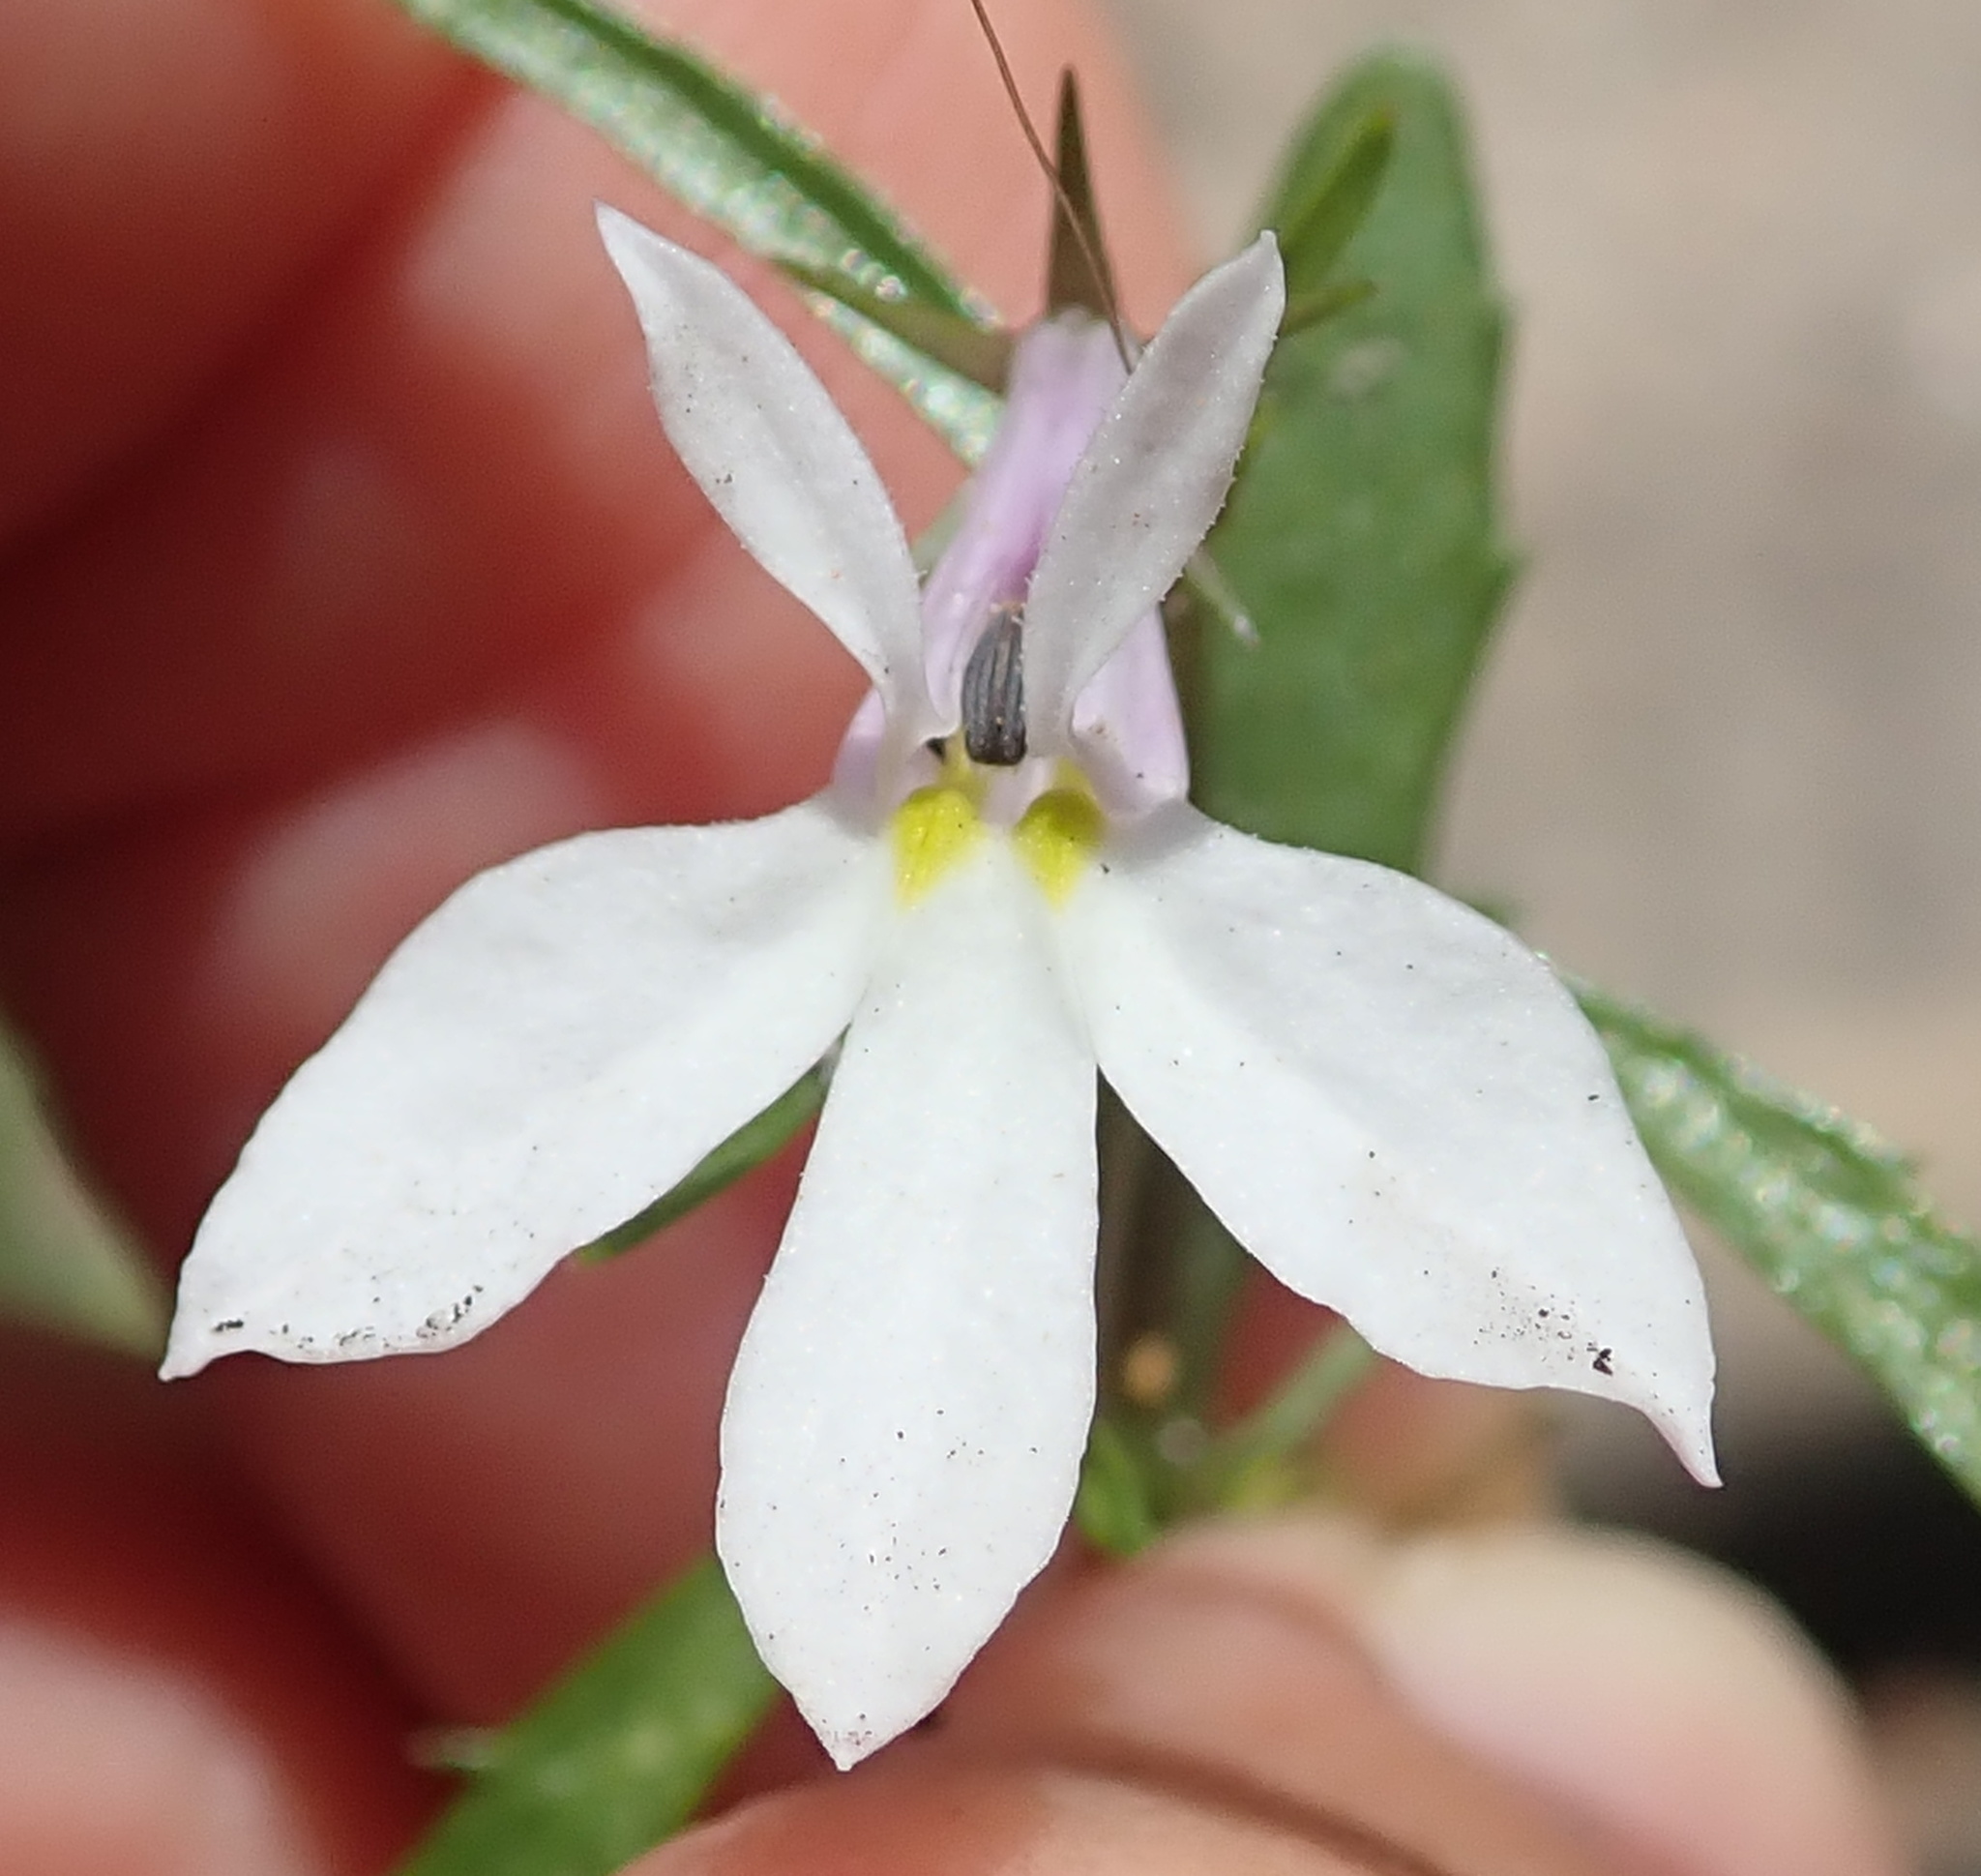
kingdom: Plantae
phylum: Tracheophyta
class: Magnoliopsida
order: Asterales
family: Campanulaceae
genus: Lobelia
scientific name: Lobelia pubescens
